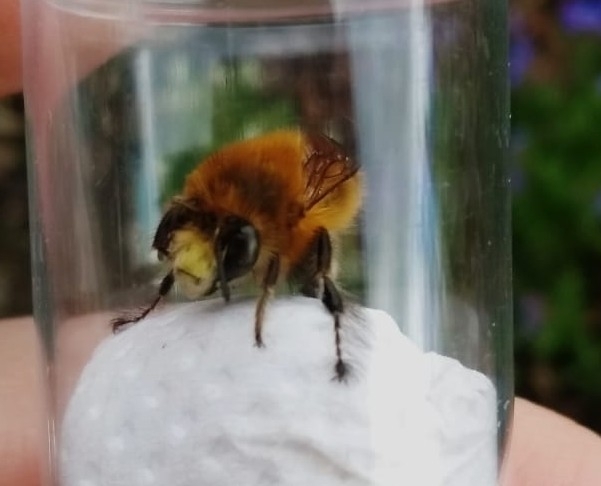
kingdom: Animalia
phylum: Arthropoda
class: Insecta
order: Hymenoptera
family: Apidae
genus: Anthophora
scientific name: Anthophora plumipes
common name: Hairy-footed flower bee
